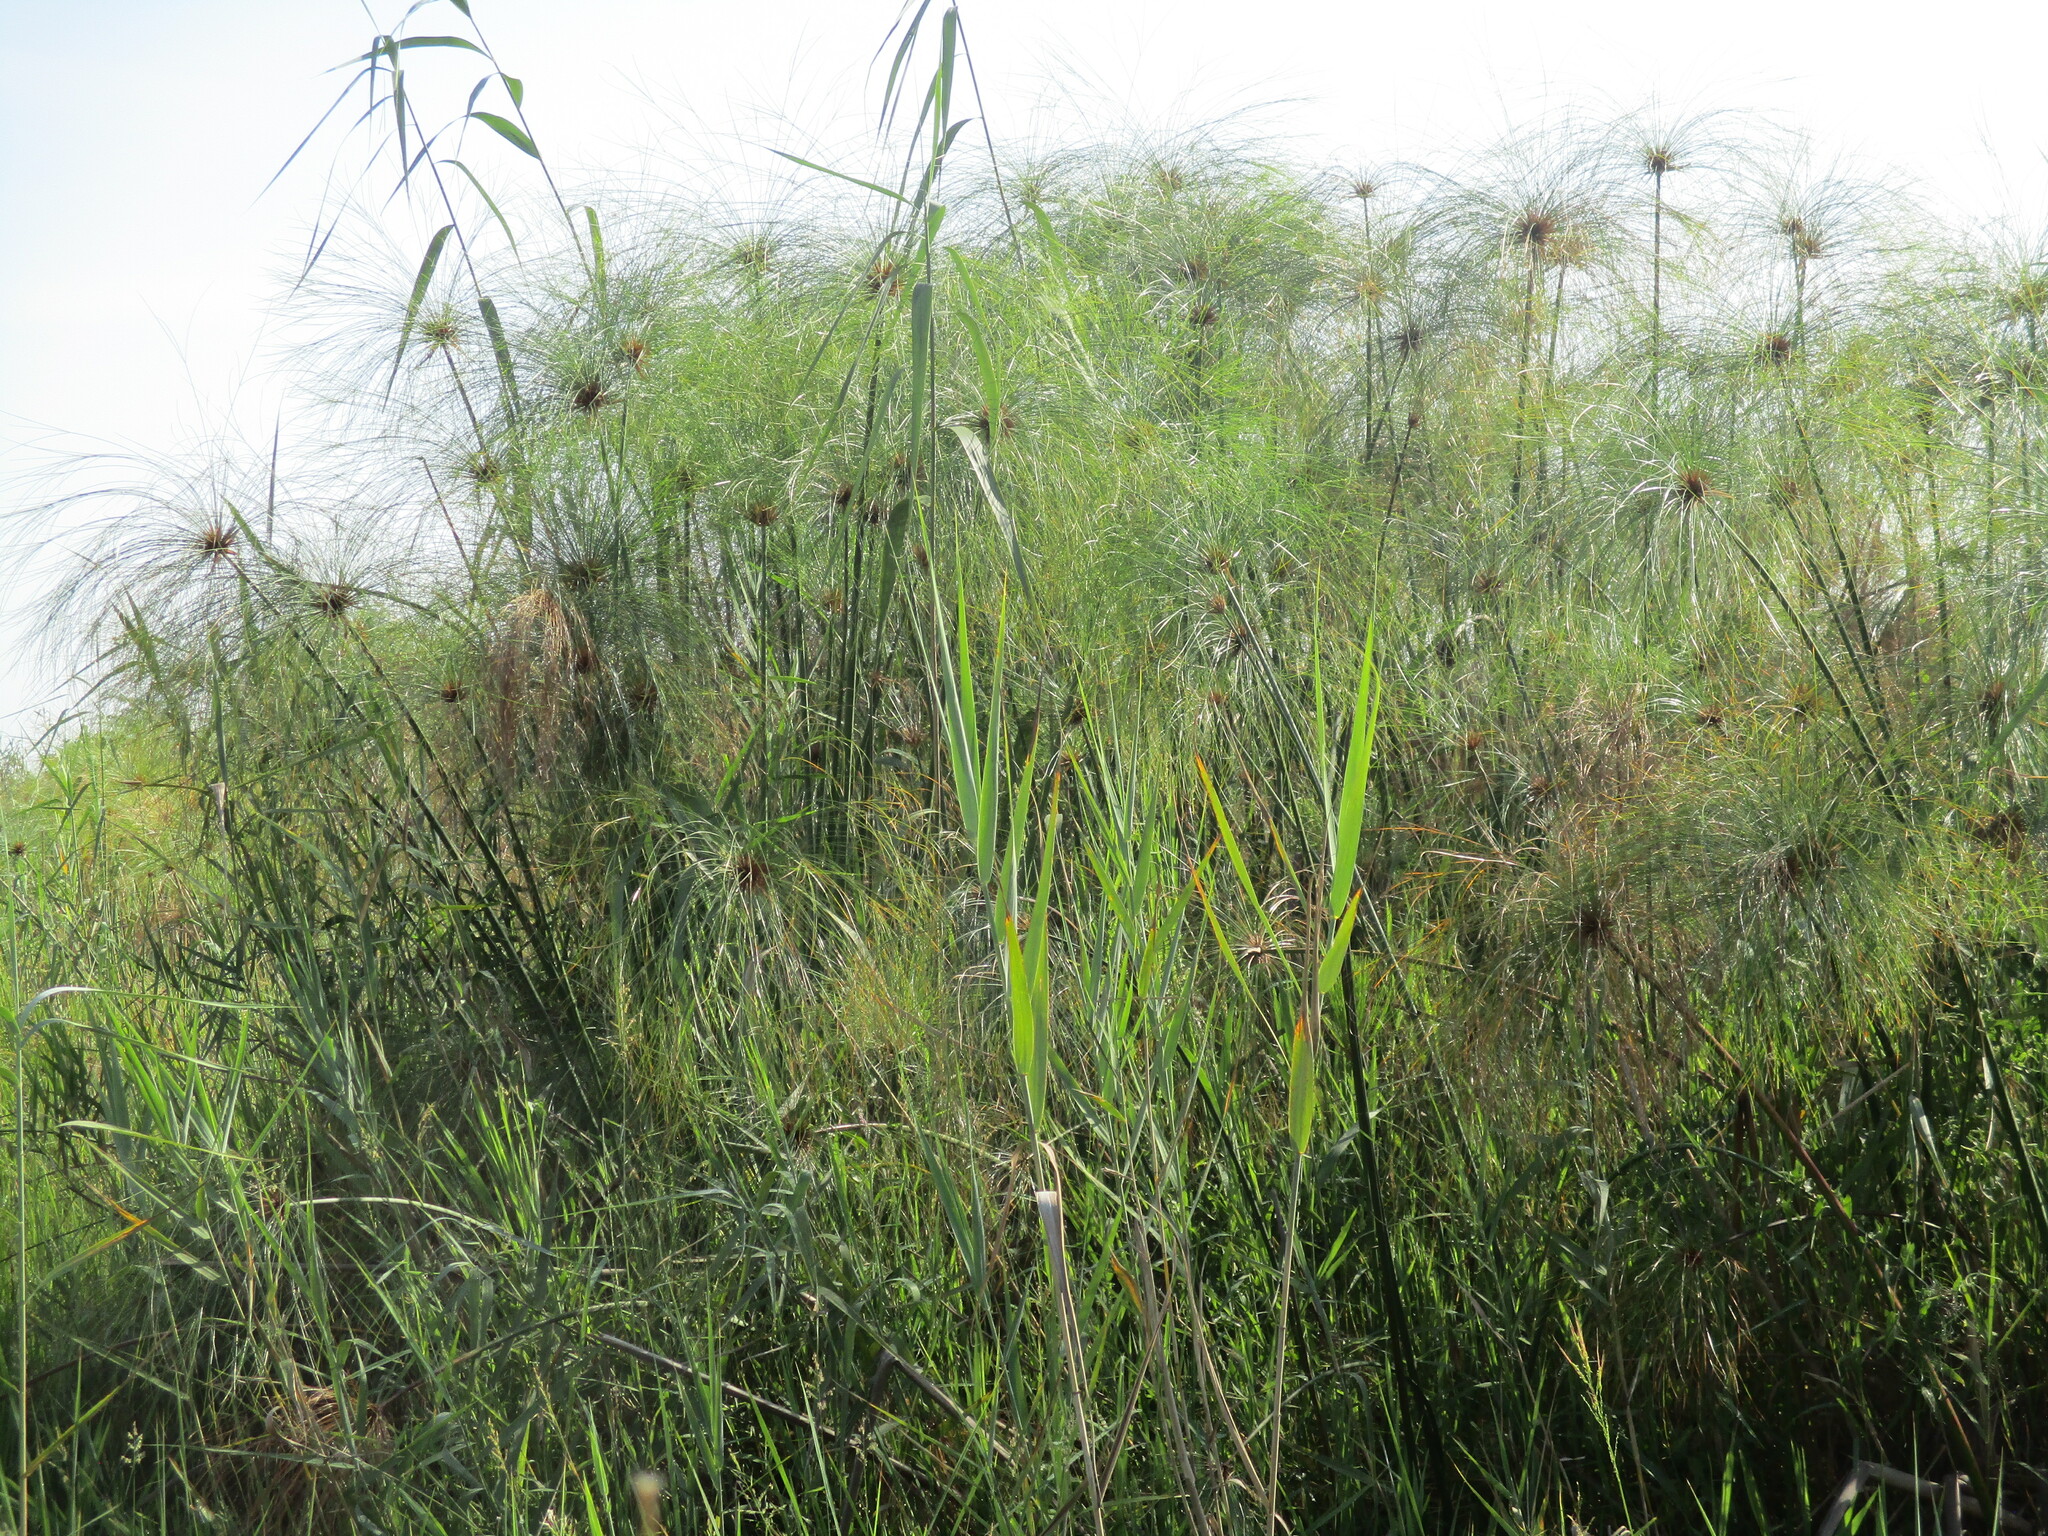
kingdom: Plantae
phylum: Tracheophyta
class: Liliopsida
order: Poales
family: Cyperaceae
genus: Cyperus
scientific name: Cyperus papyrus
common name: Papyrus
